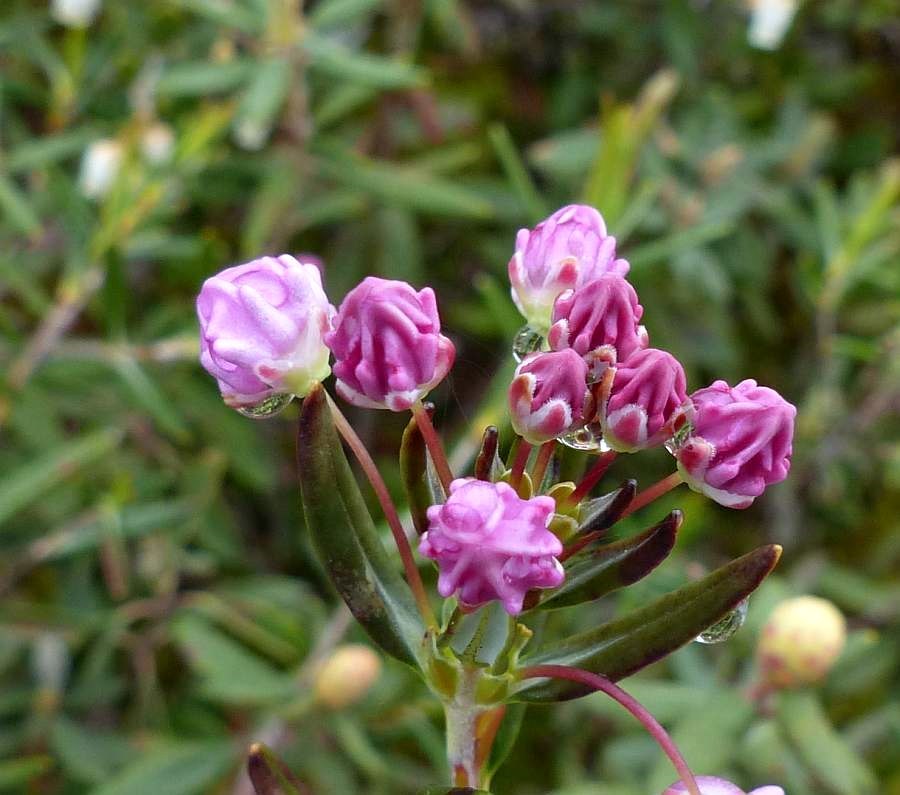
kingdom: Plantae
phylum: Tracheophyta
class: Magnoliopsida
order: Ericales
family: Ericaceae
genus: Kalmia
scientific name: Kalmia polifolia
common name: Bog-laurel
